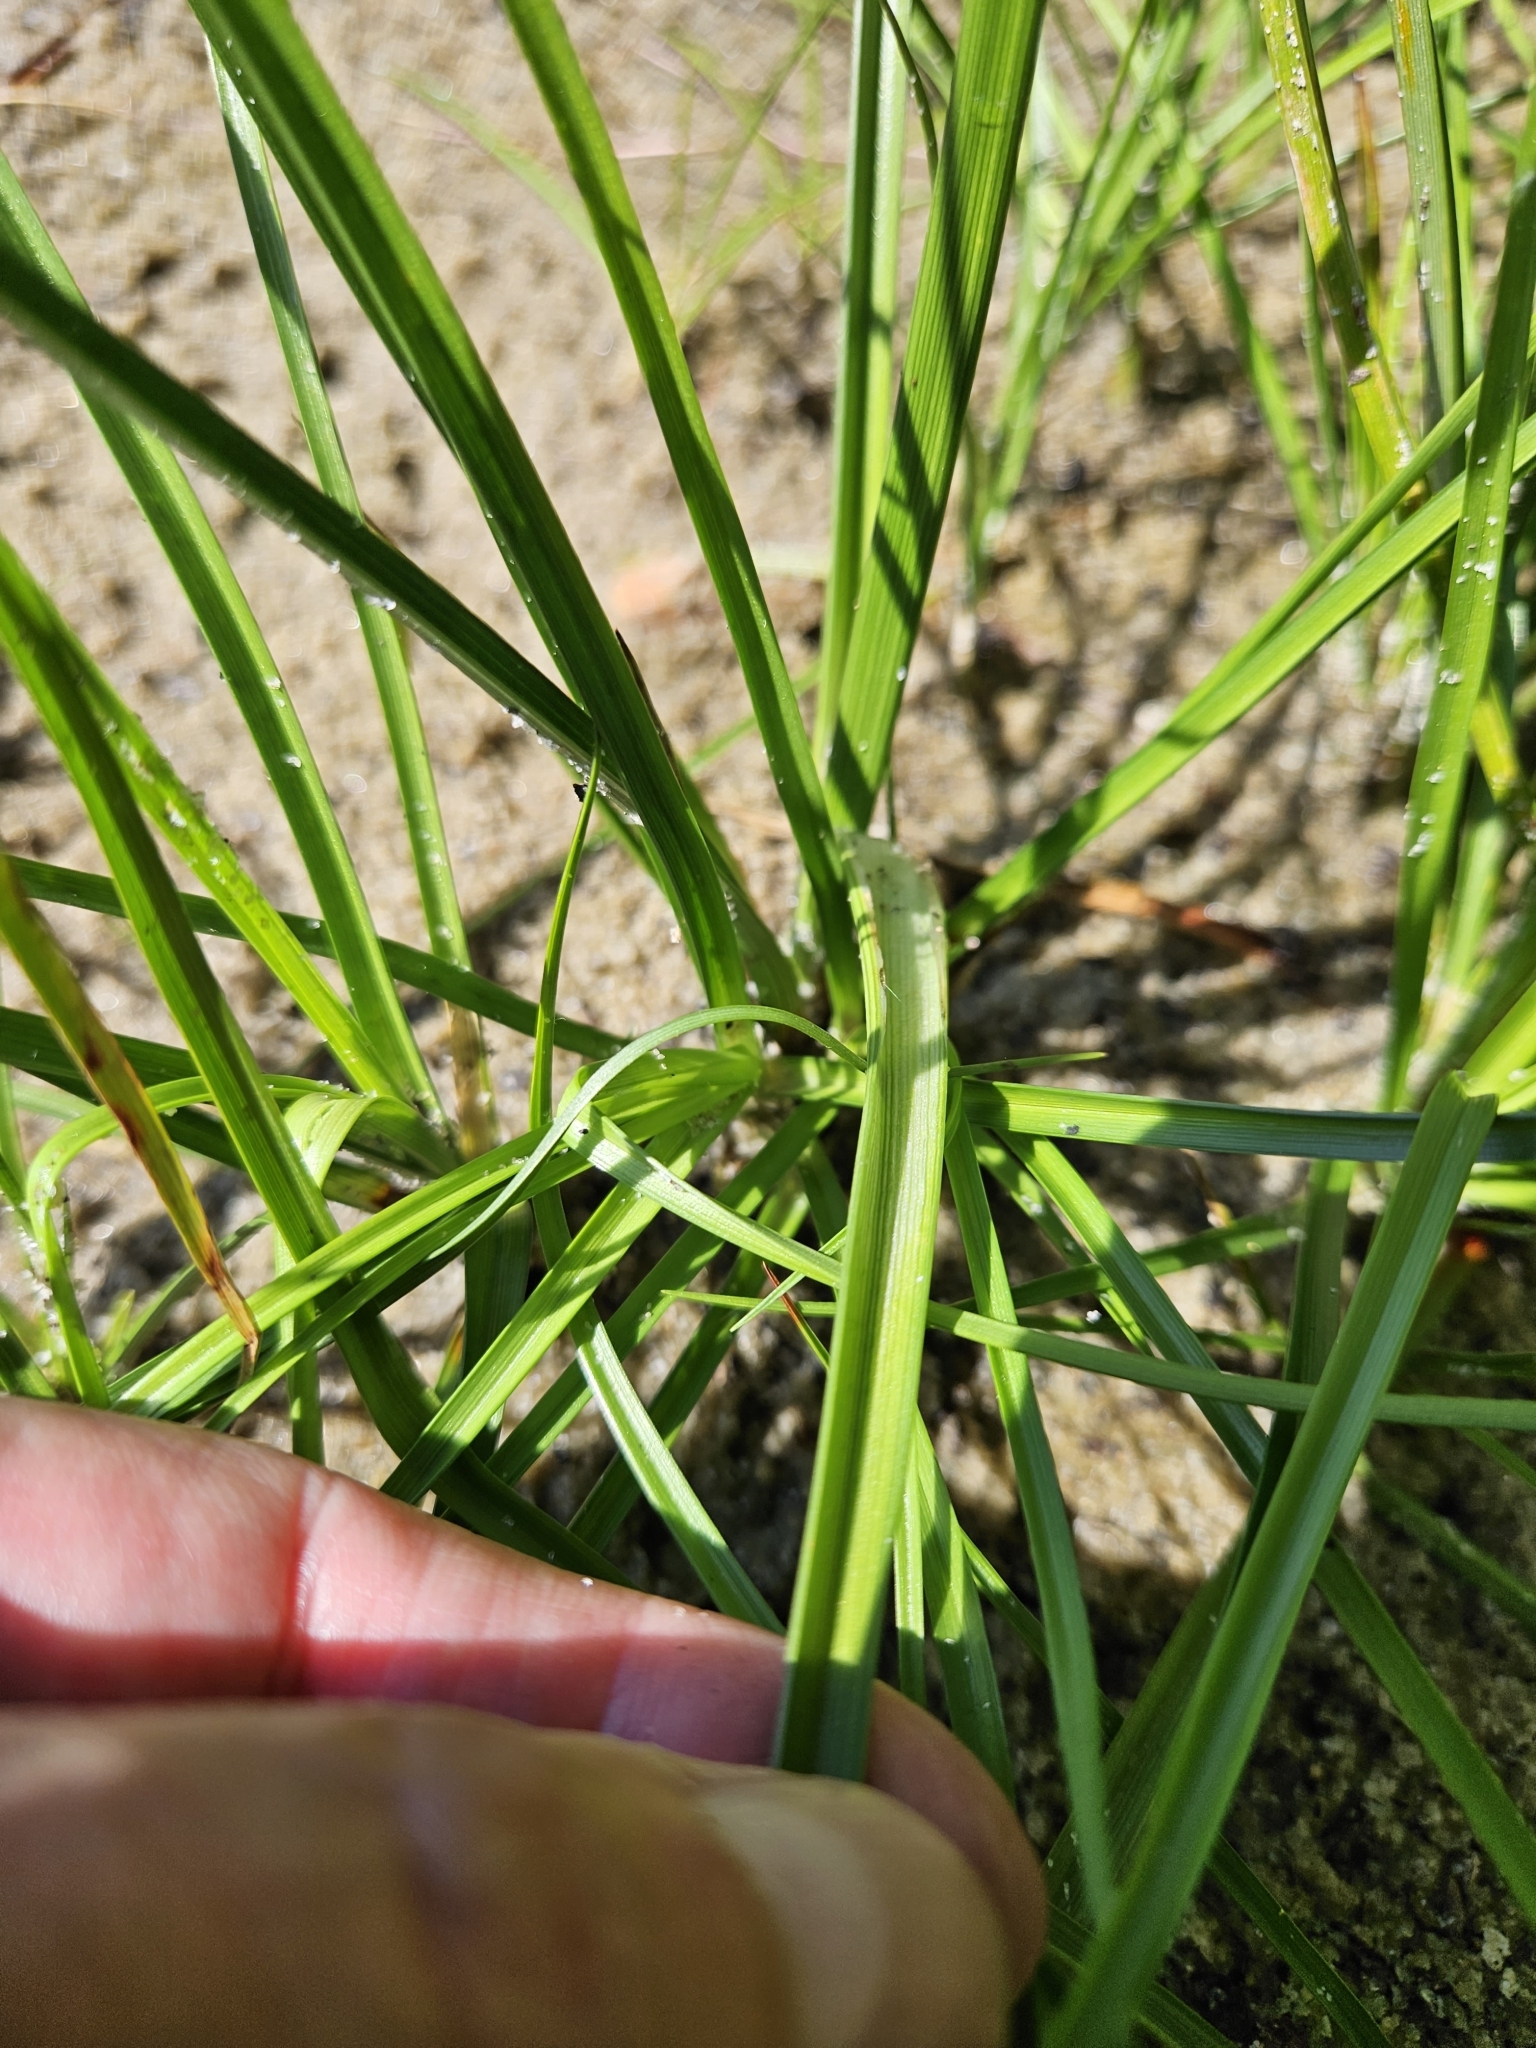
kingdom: Plantae
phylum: Tracheophyta
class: Liliopsida
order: Poales
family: Cyperaceae
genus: Cyperus
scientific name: Cyperus dentatus
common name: Dentate umbrella sedge
